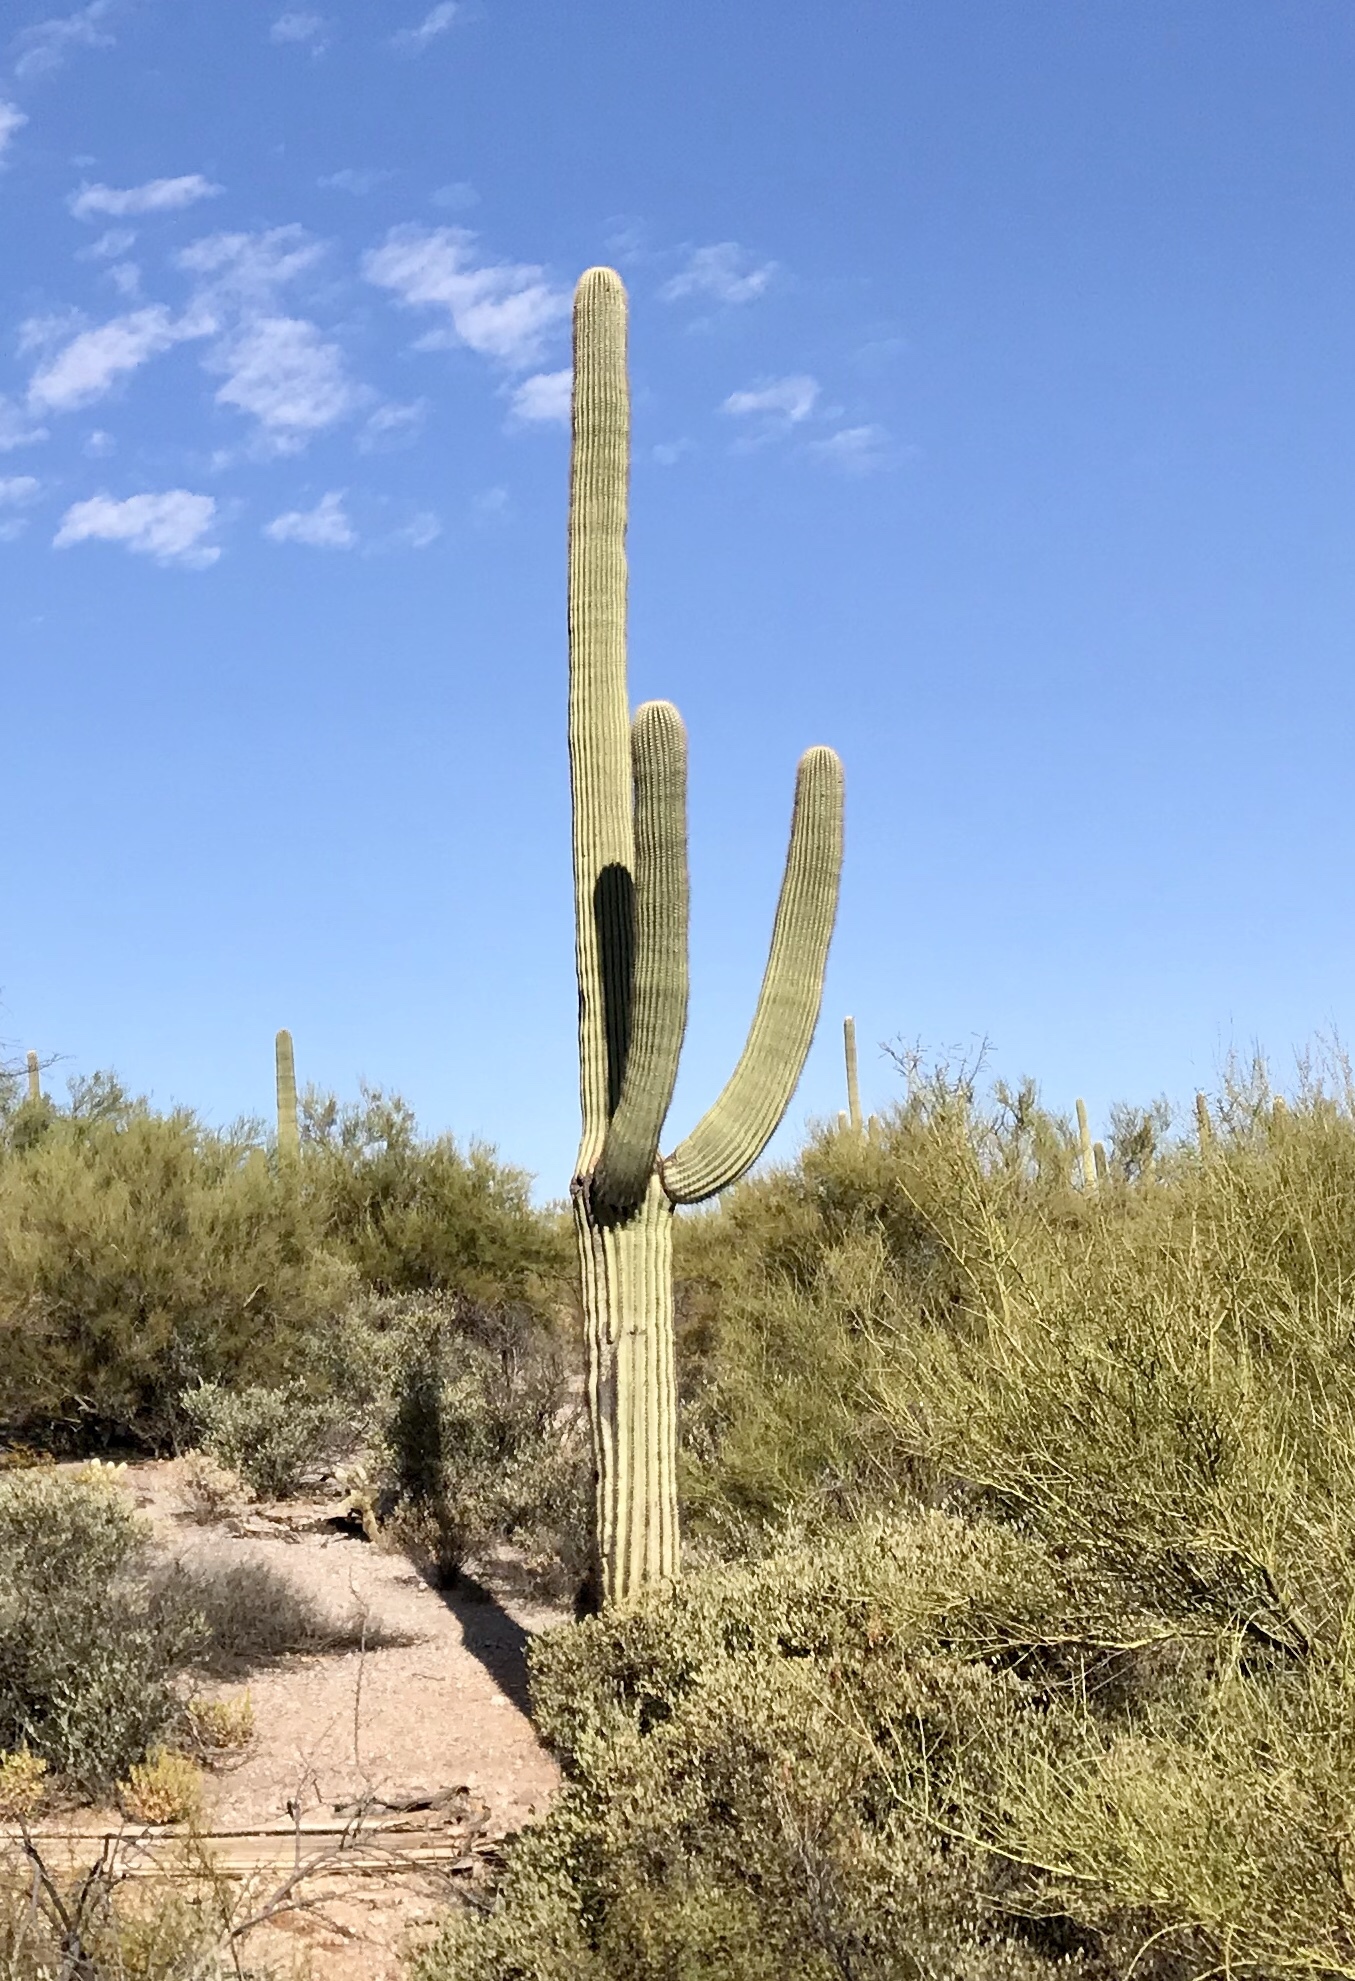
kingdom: Plantae
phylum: Tracheophyta
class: Magnoliopsida
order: Caryophyllales
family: Cactaceae
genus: Carnegiea
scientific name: Carnegiea gigantea
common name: Saguaro
